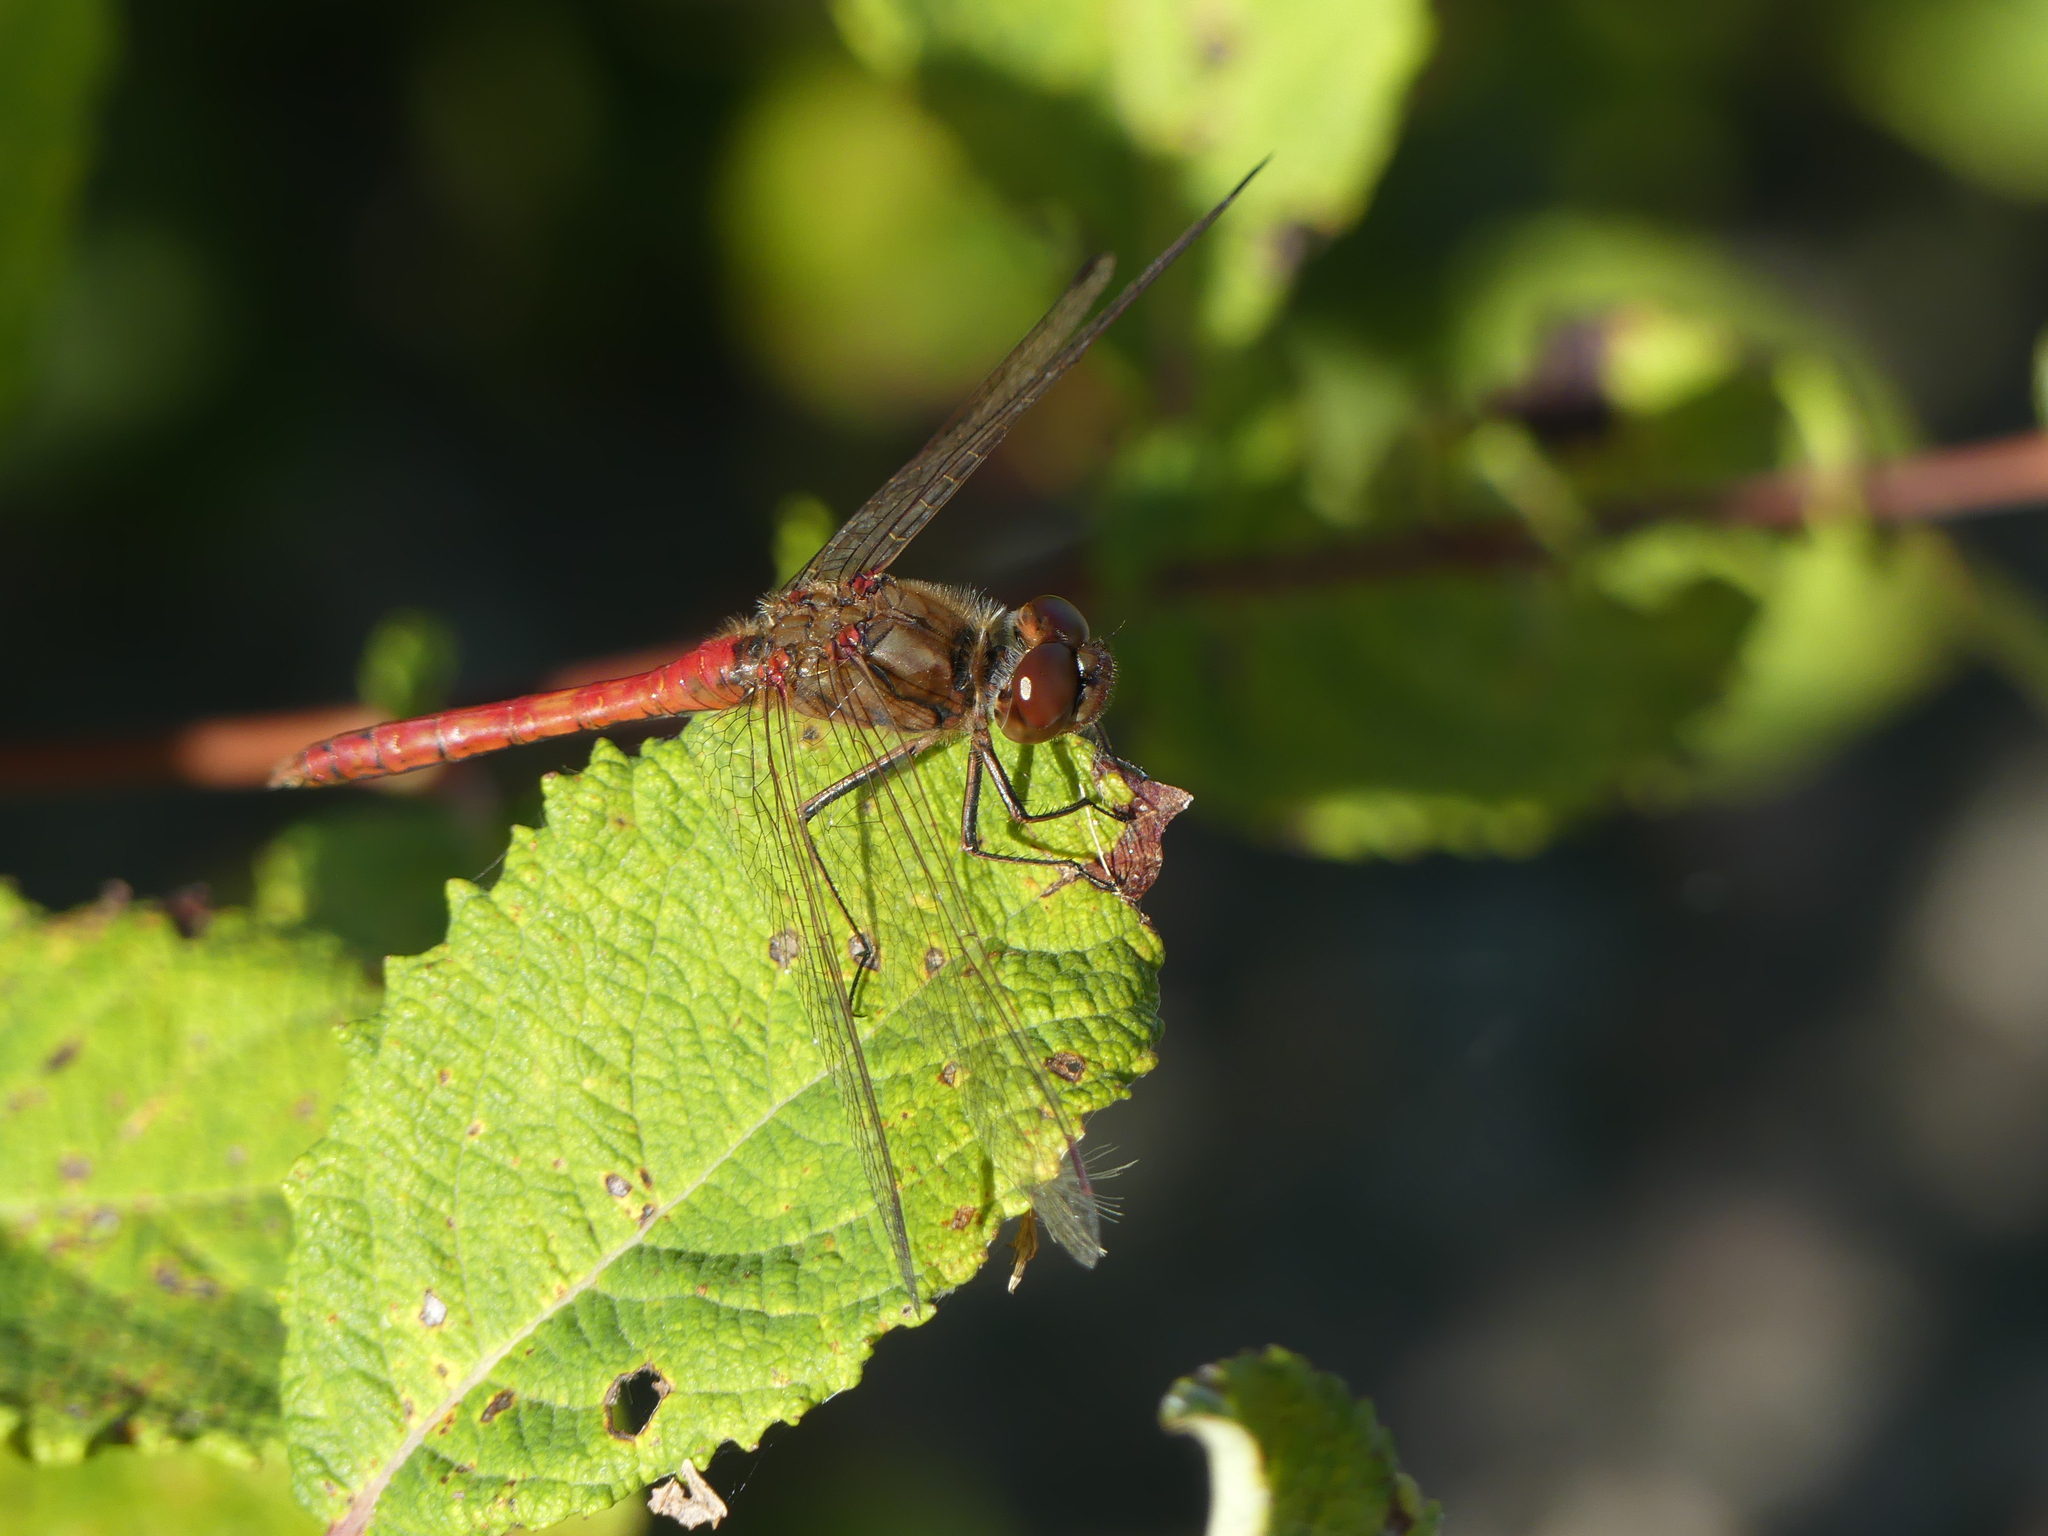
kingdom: Animalia
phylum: Arthropoda
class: Insecta
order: Odonata
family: Libellulidae
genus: Sympetrum
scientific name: Sympetrum vulgatum
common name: Vagrant darter
